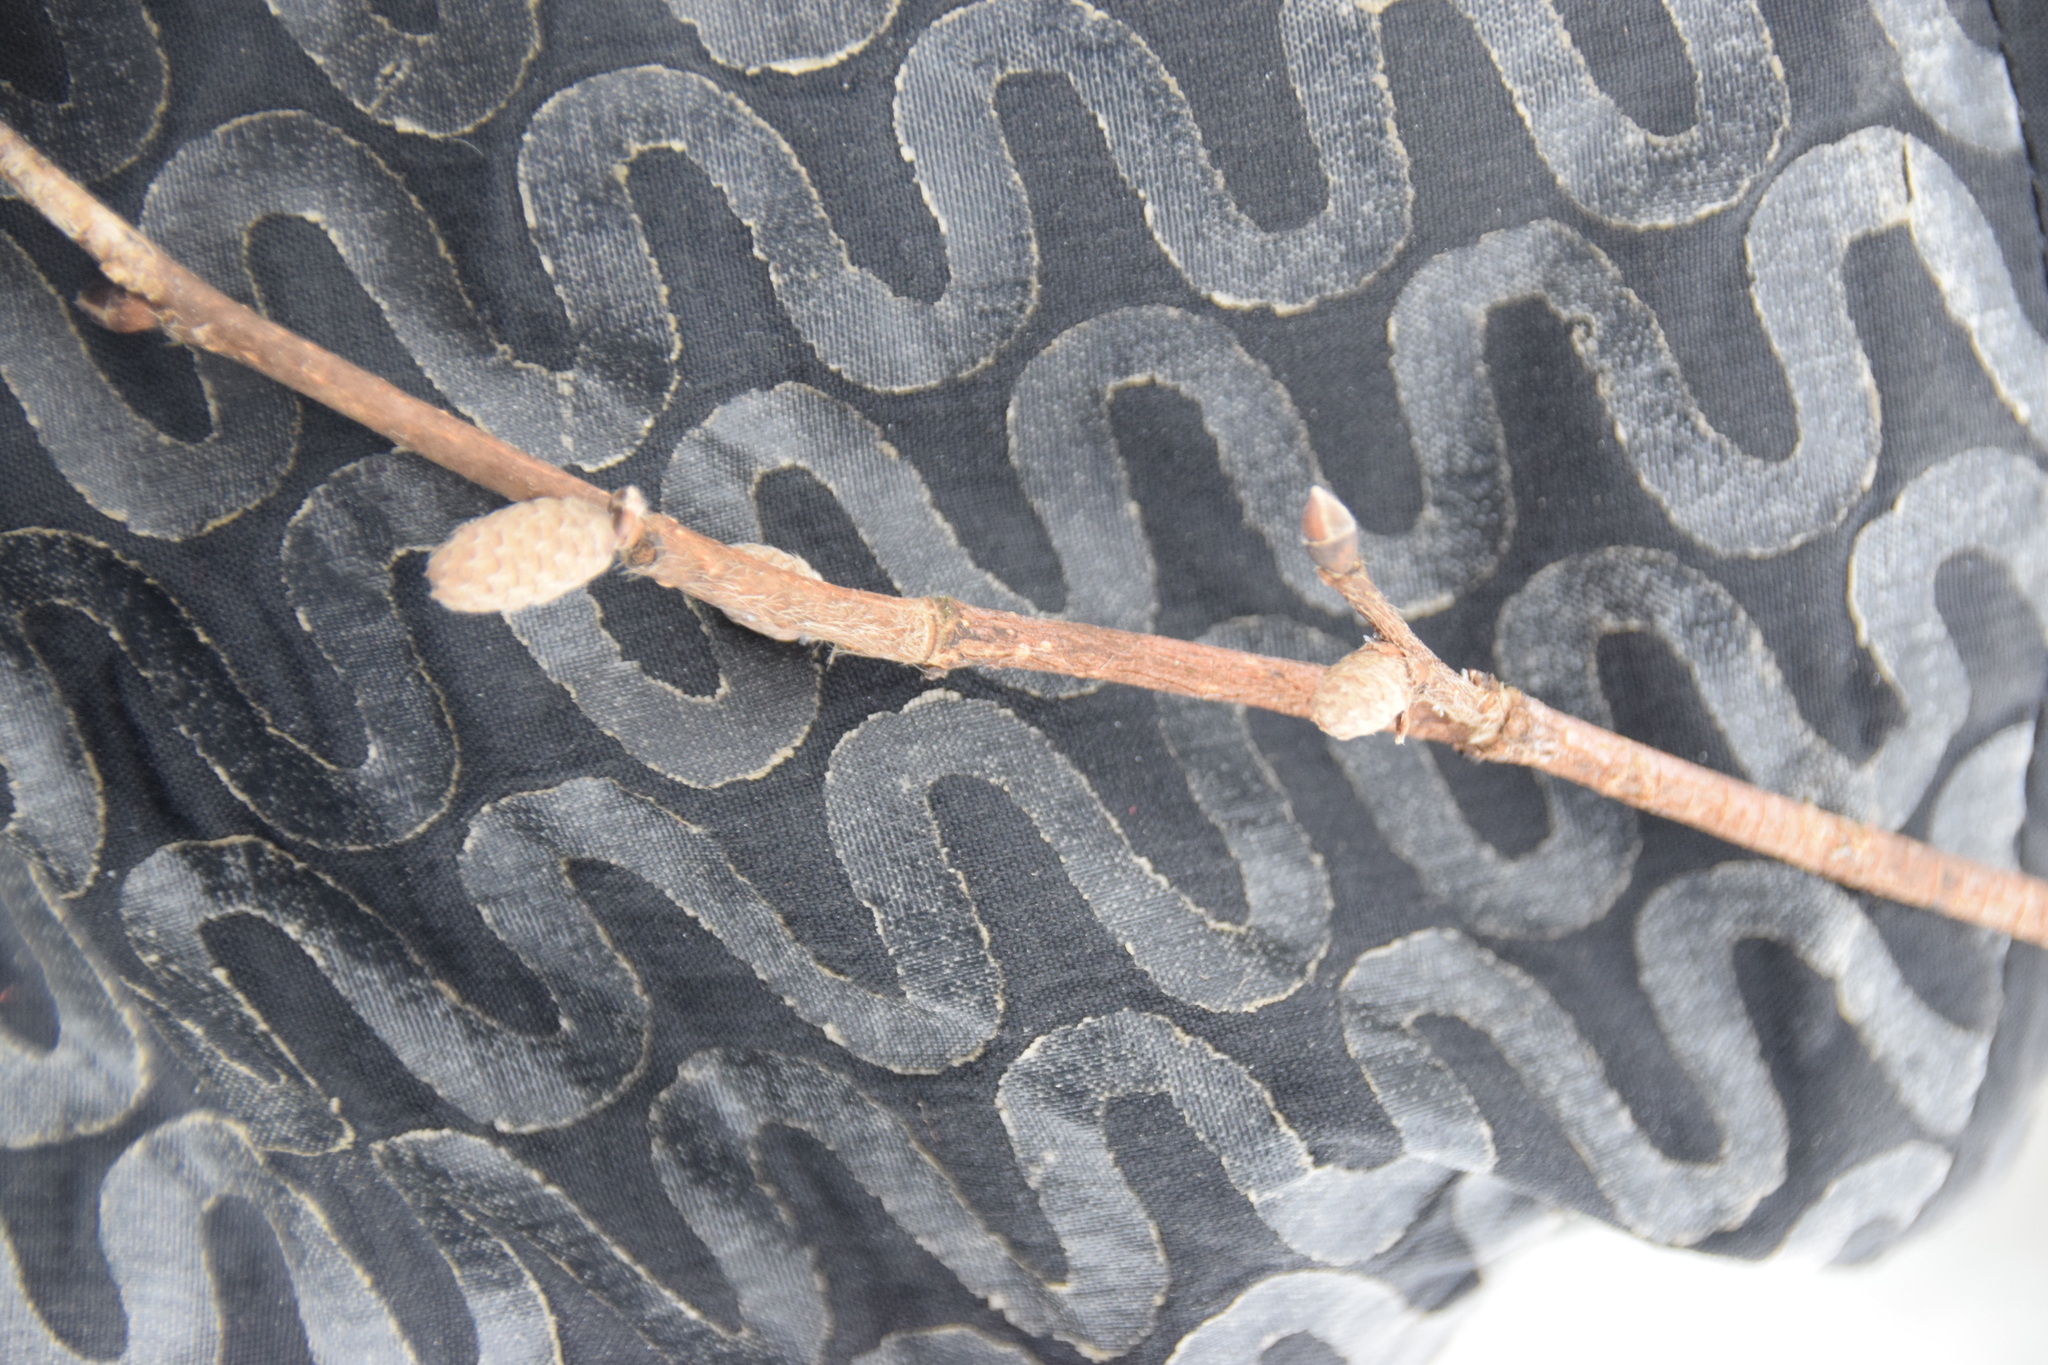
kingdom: Plantae
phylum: Tracheophyta
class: Magnoliopsida
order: Fagales
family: Betulaceae
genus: Corylus
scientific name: Corylus cornuta
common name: Beaked hazel
